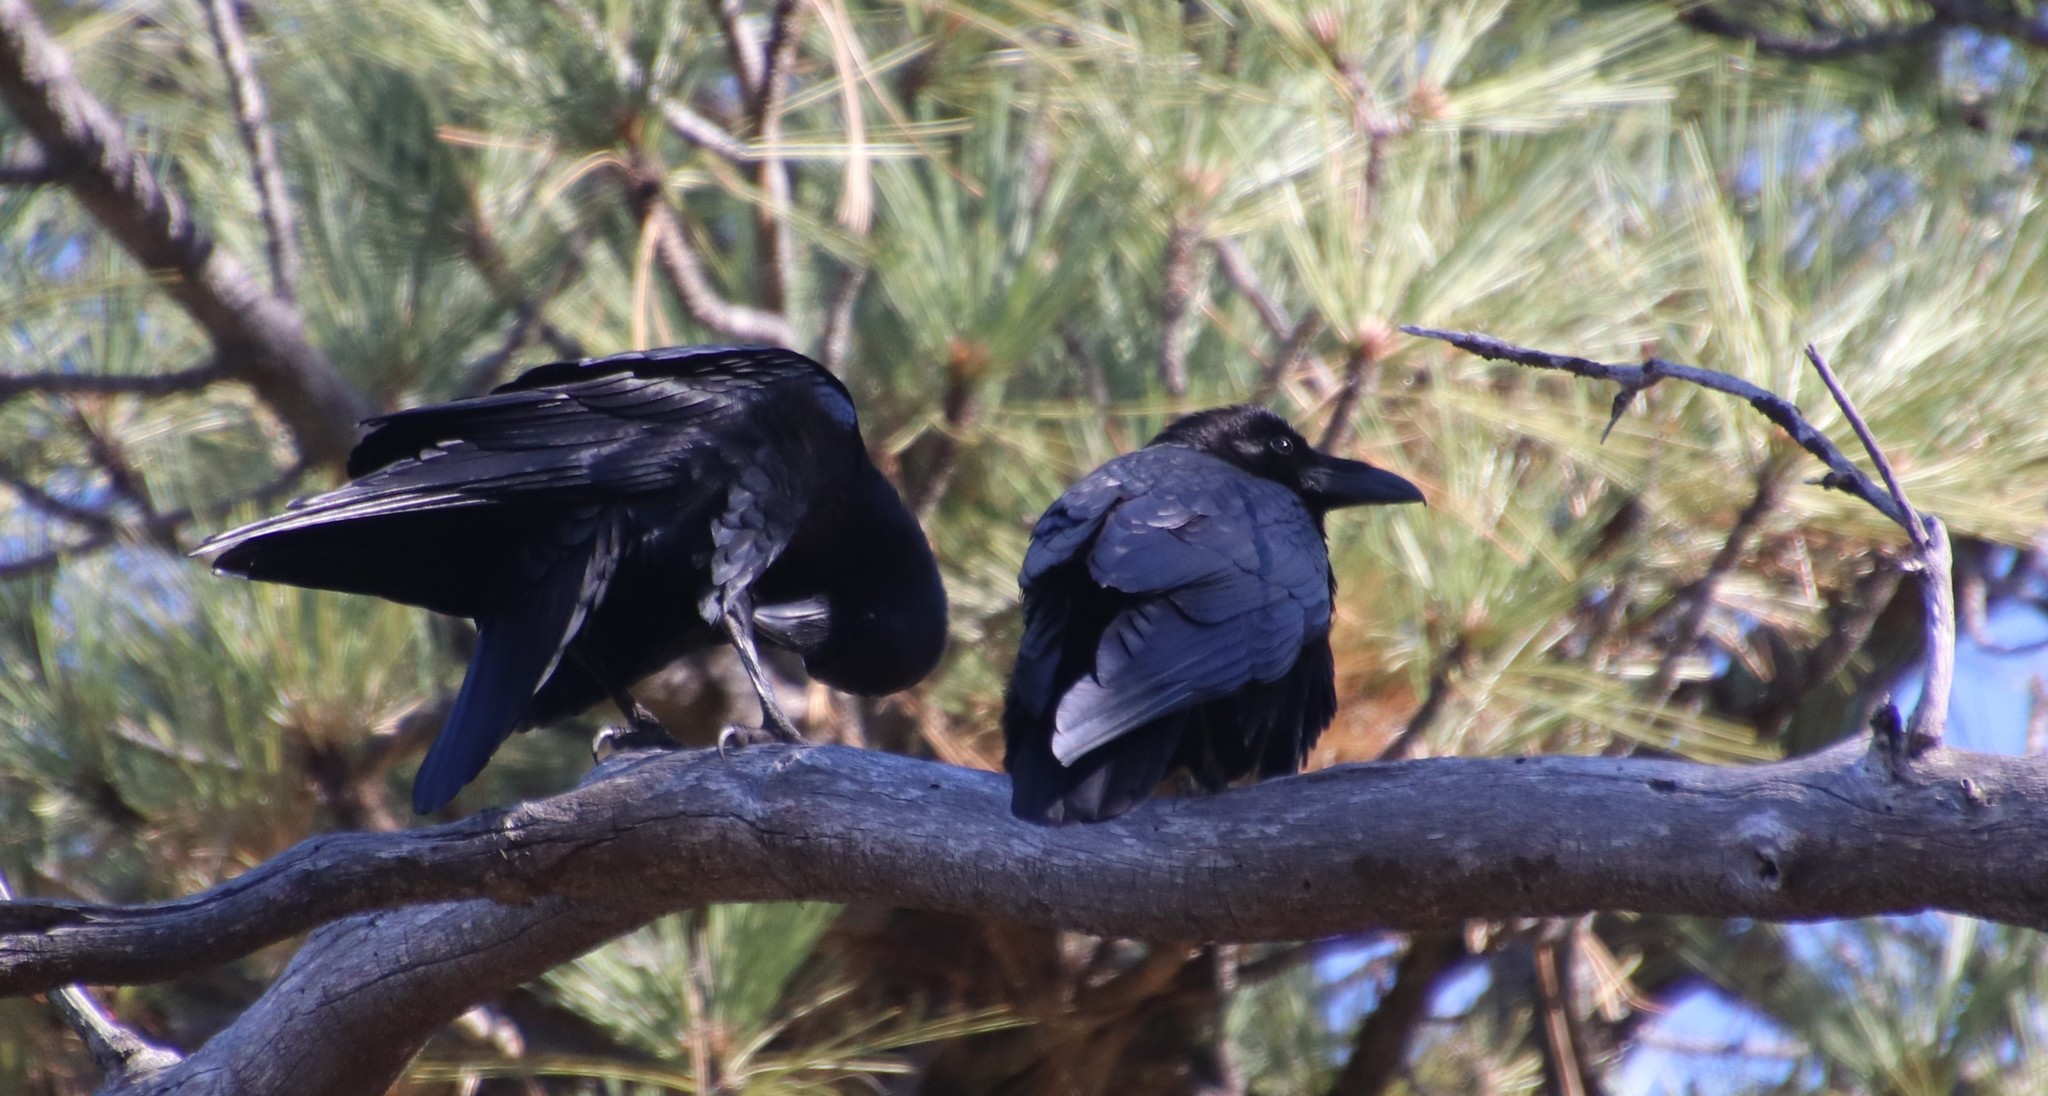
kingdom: Animalia
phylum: Chordata
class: Aves
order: Passeriformes
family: Corvidae
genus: Corvus
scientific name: Corvus corax
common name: Common raven
